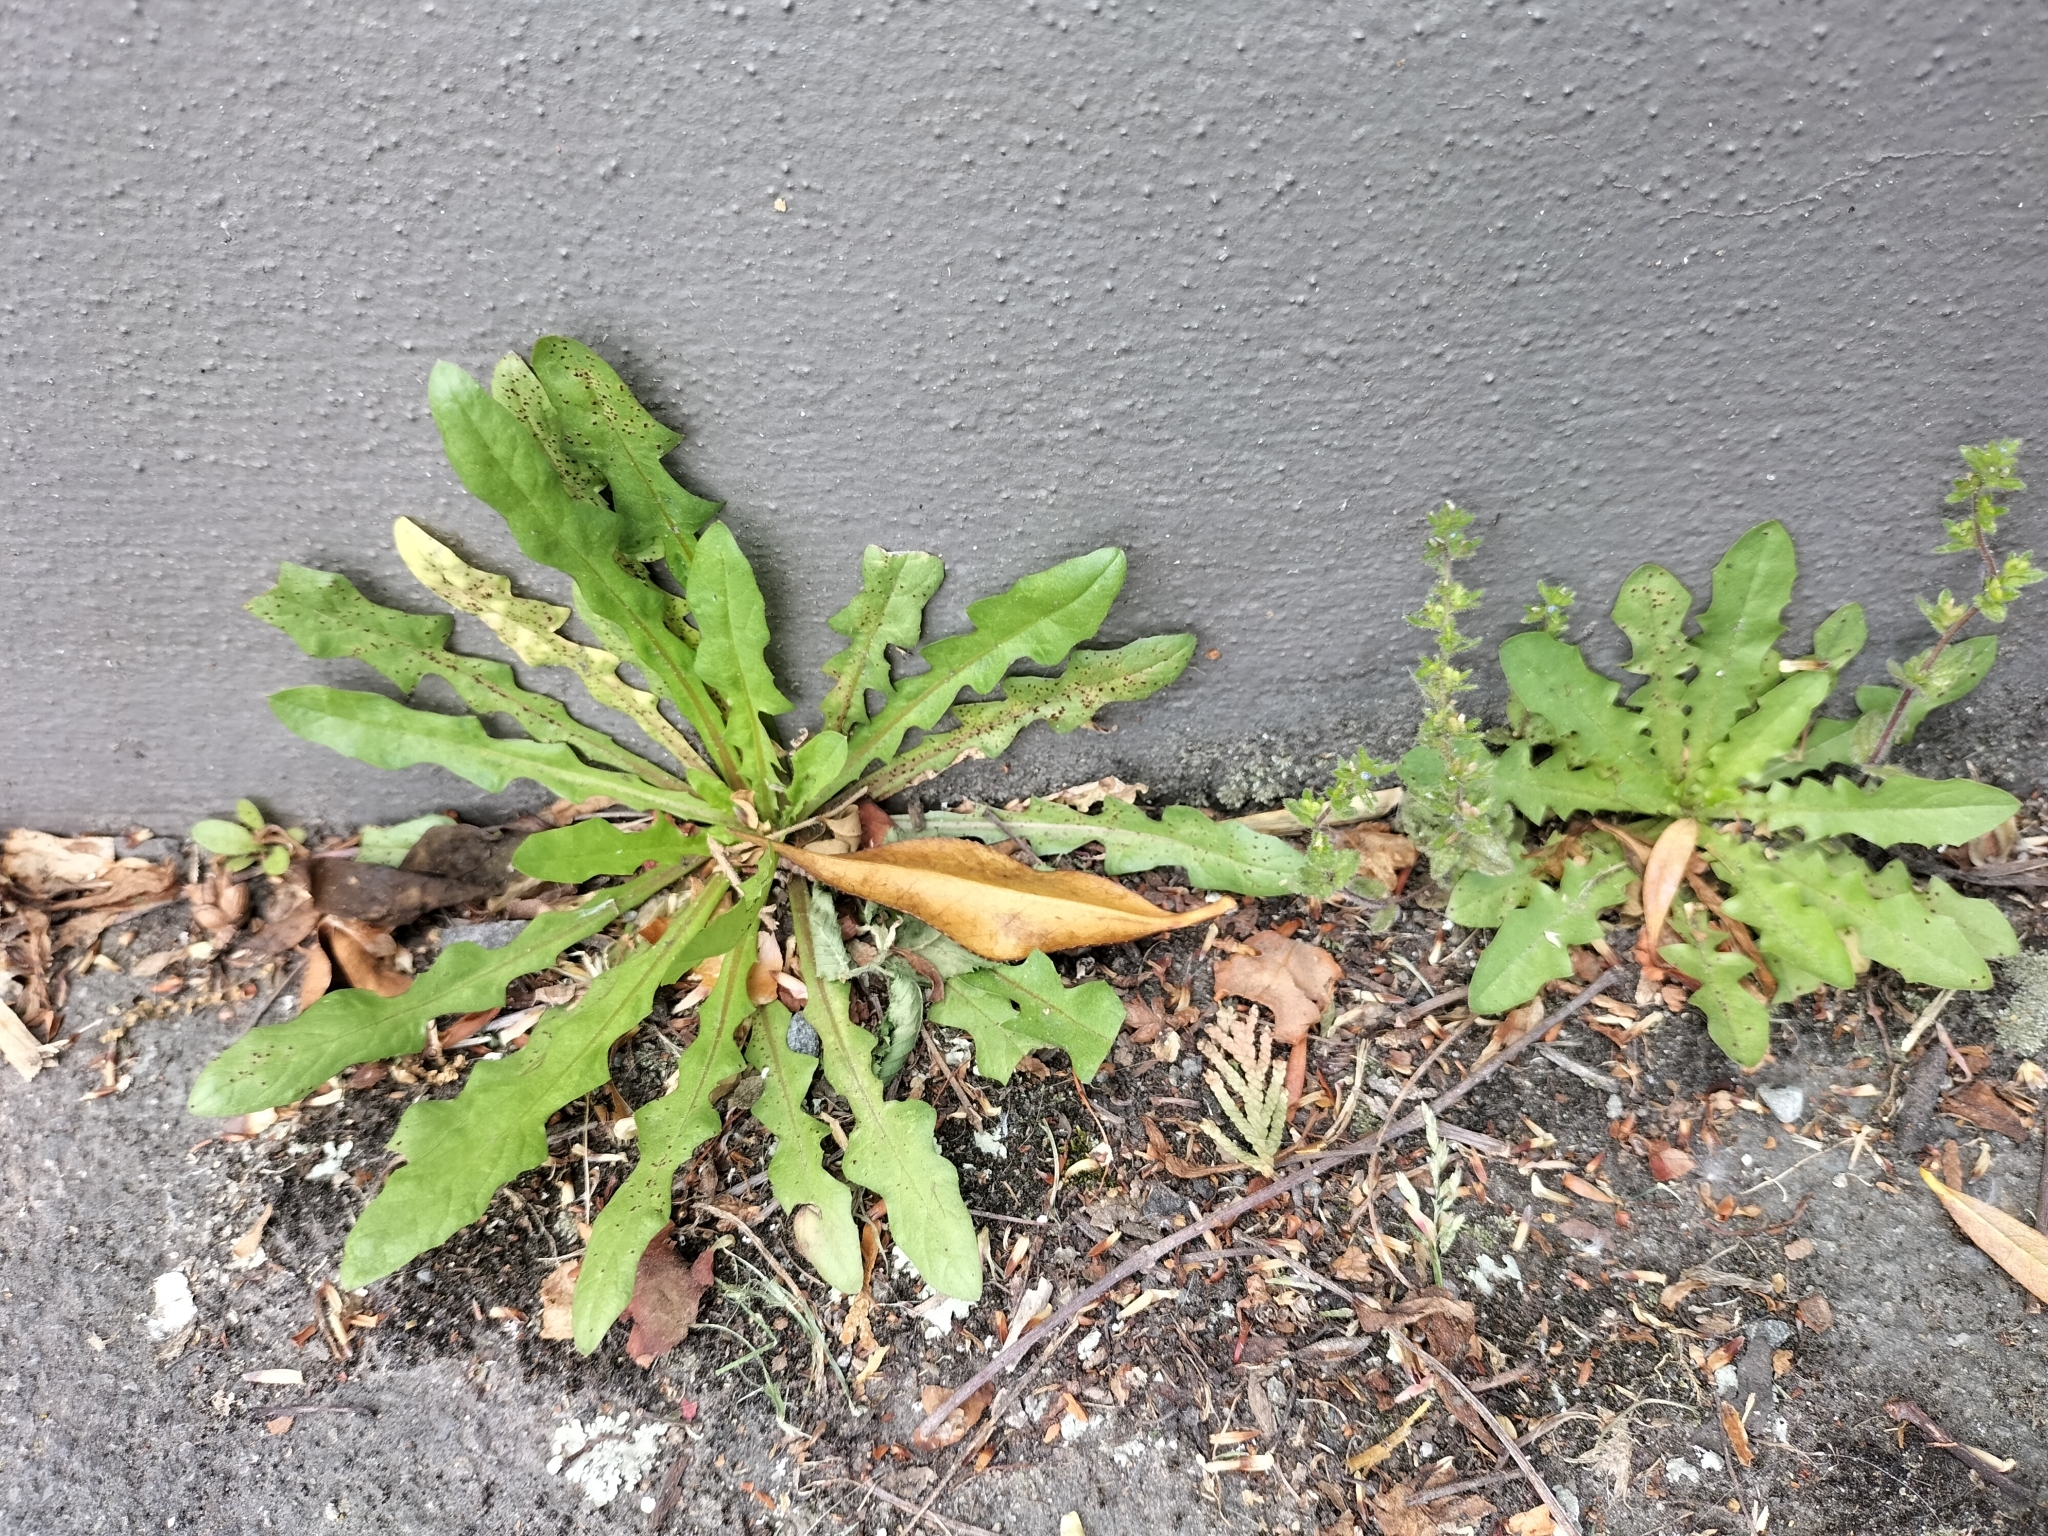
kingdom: Plantae
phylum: Tracheophyta
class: Magnoliopsida
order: Asterales
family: Asteraceae
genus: Crepis
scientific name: Crepis capillaris
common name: Smooth hawksbeard
